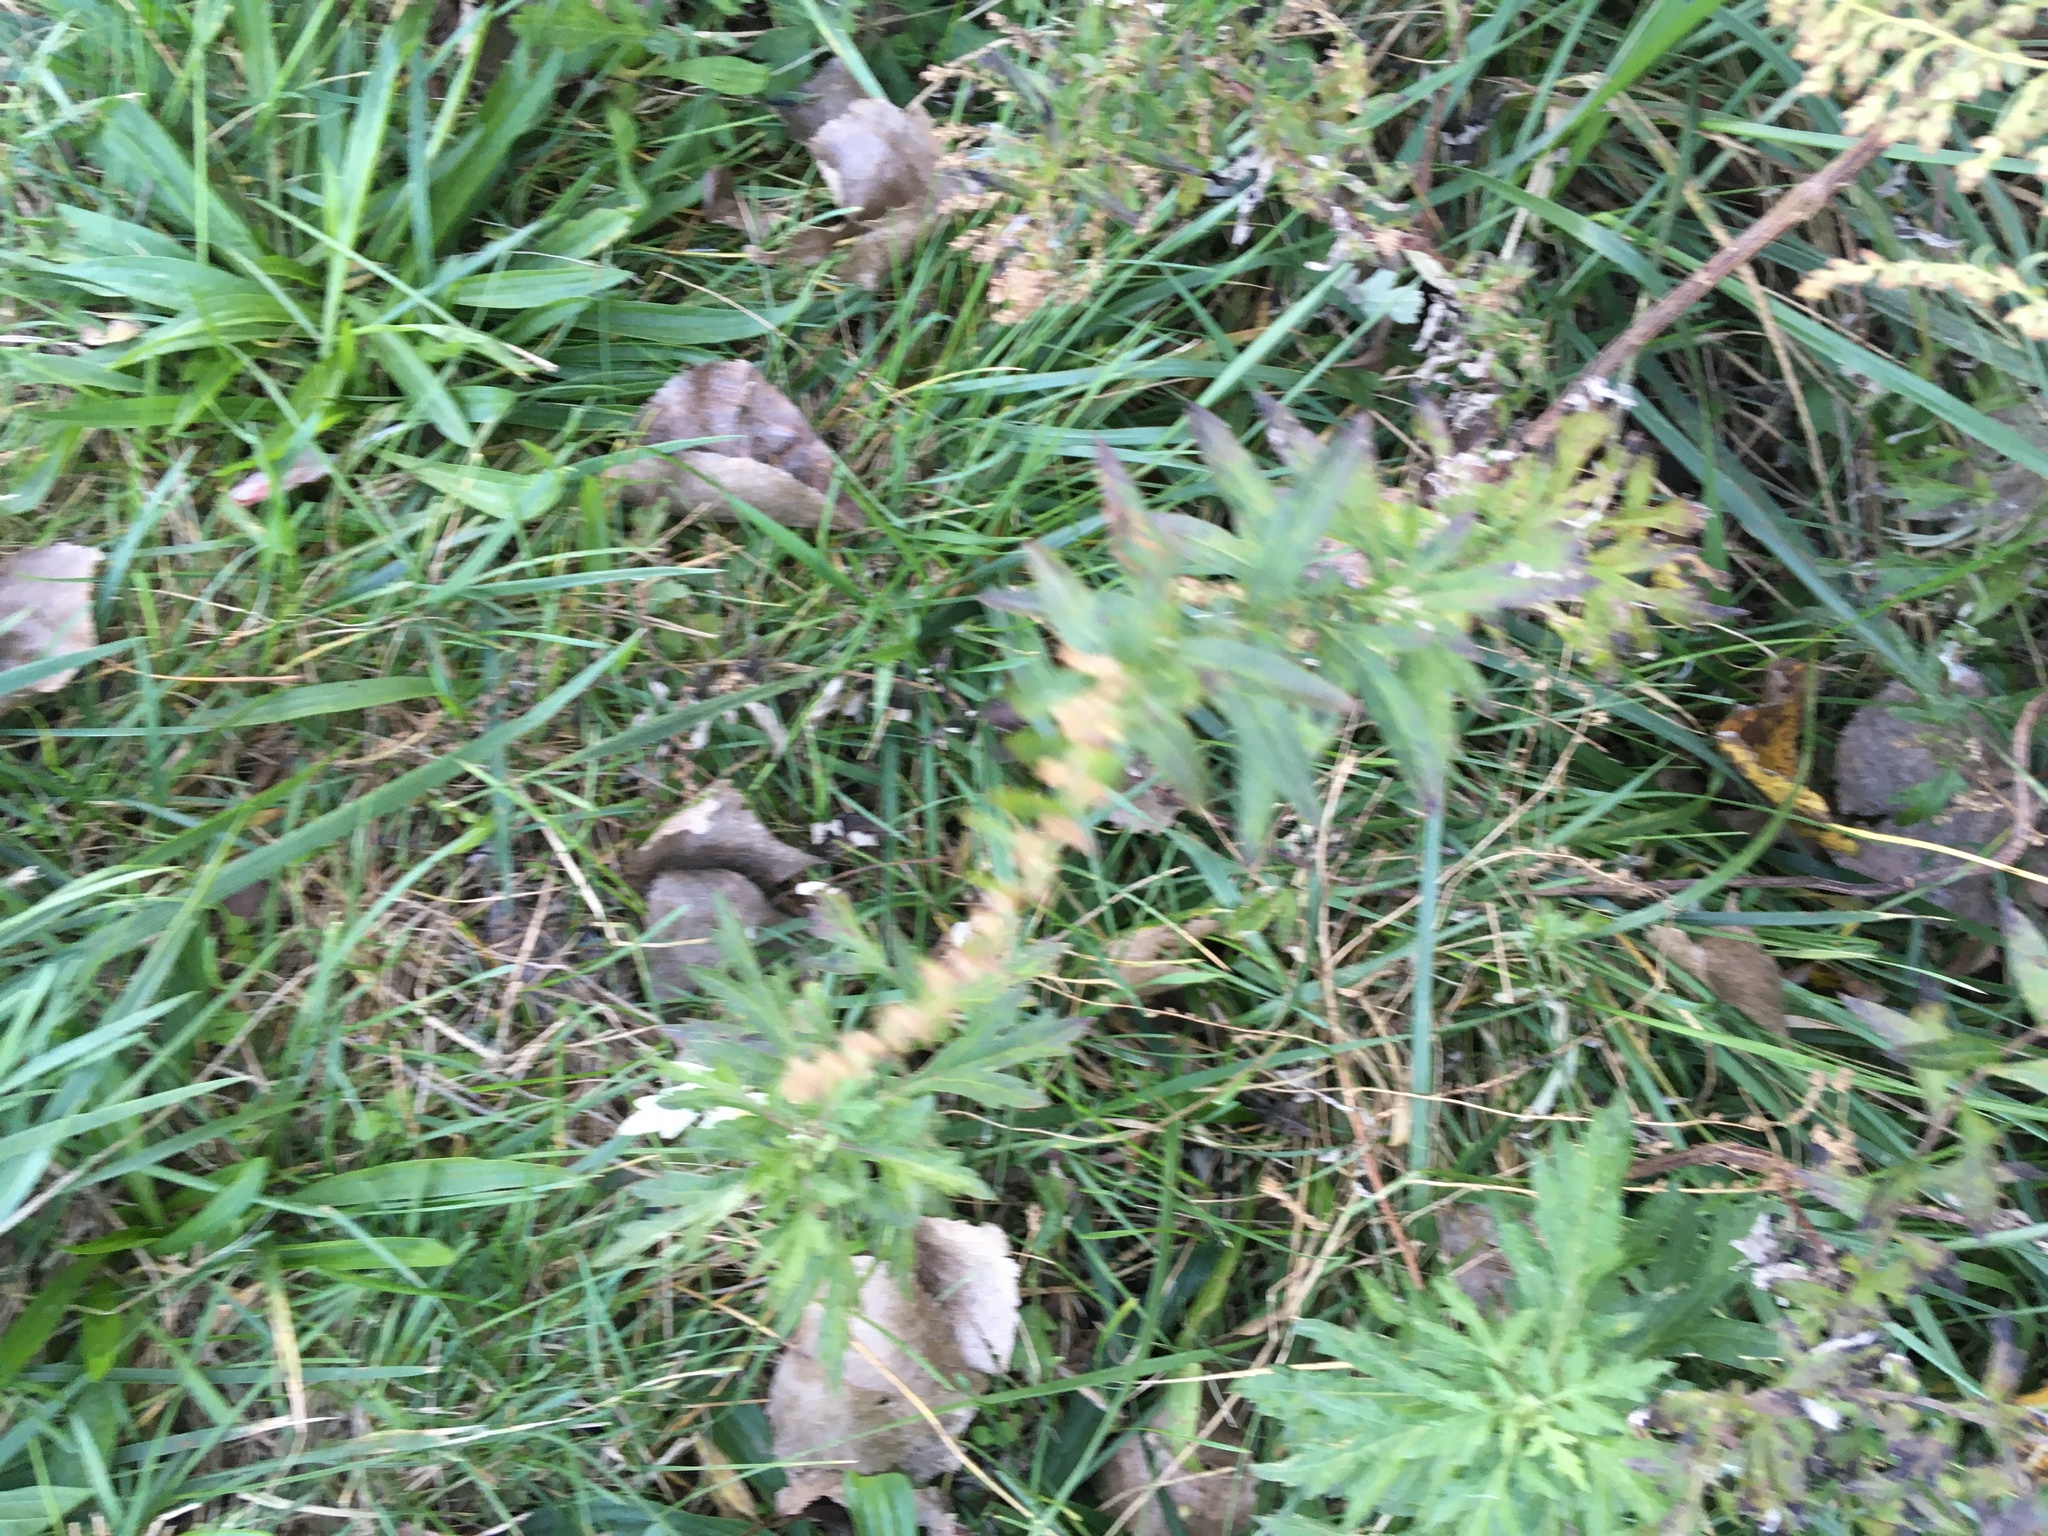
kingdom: Plantae
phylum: Tracheophyta
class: Magnoliopsida
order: Asterales
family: Asteraceae
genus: Artemisia
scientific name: Artemisia vulgaris
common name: Mugwort
